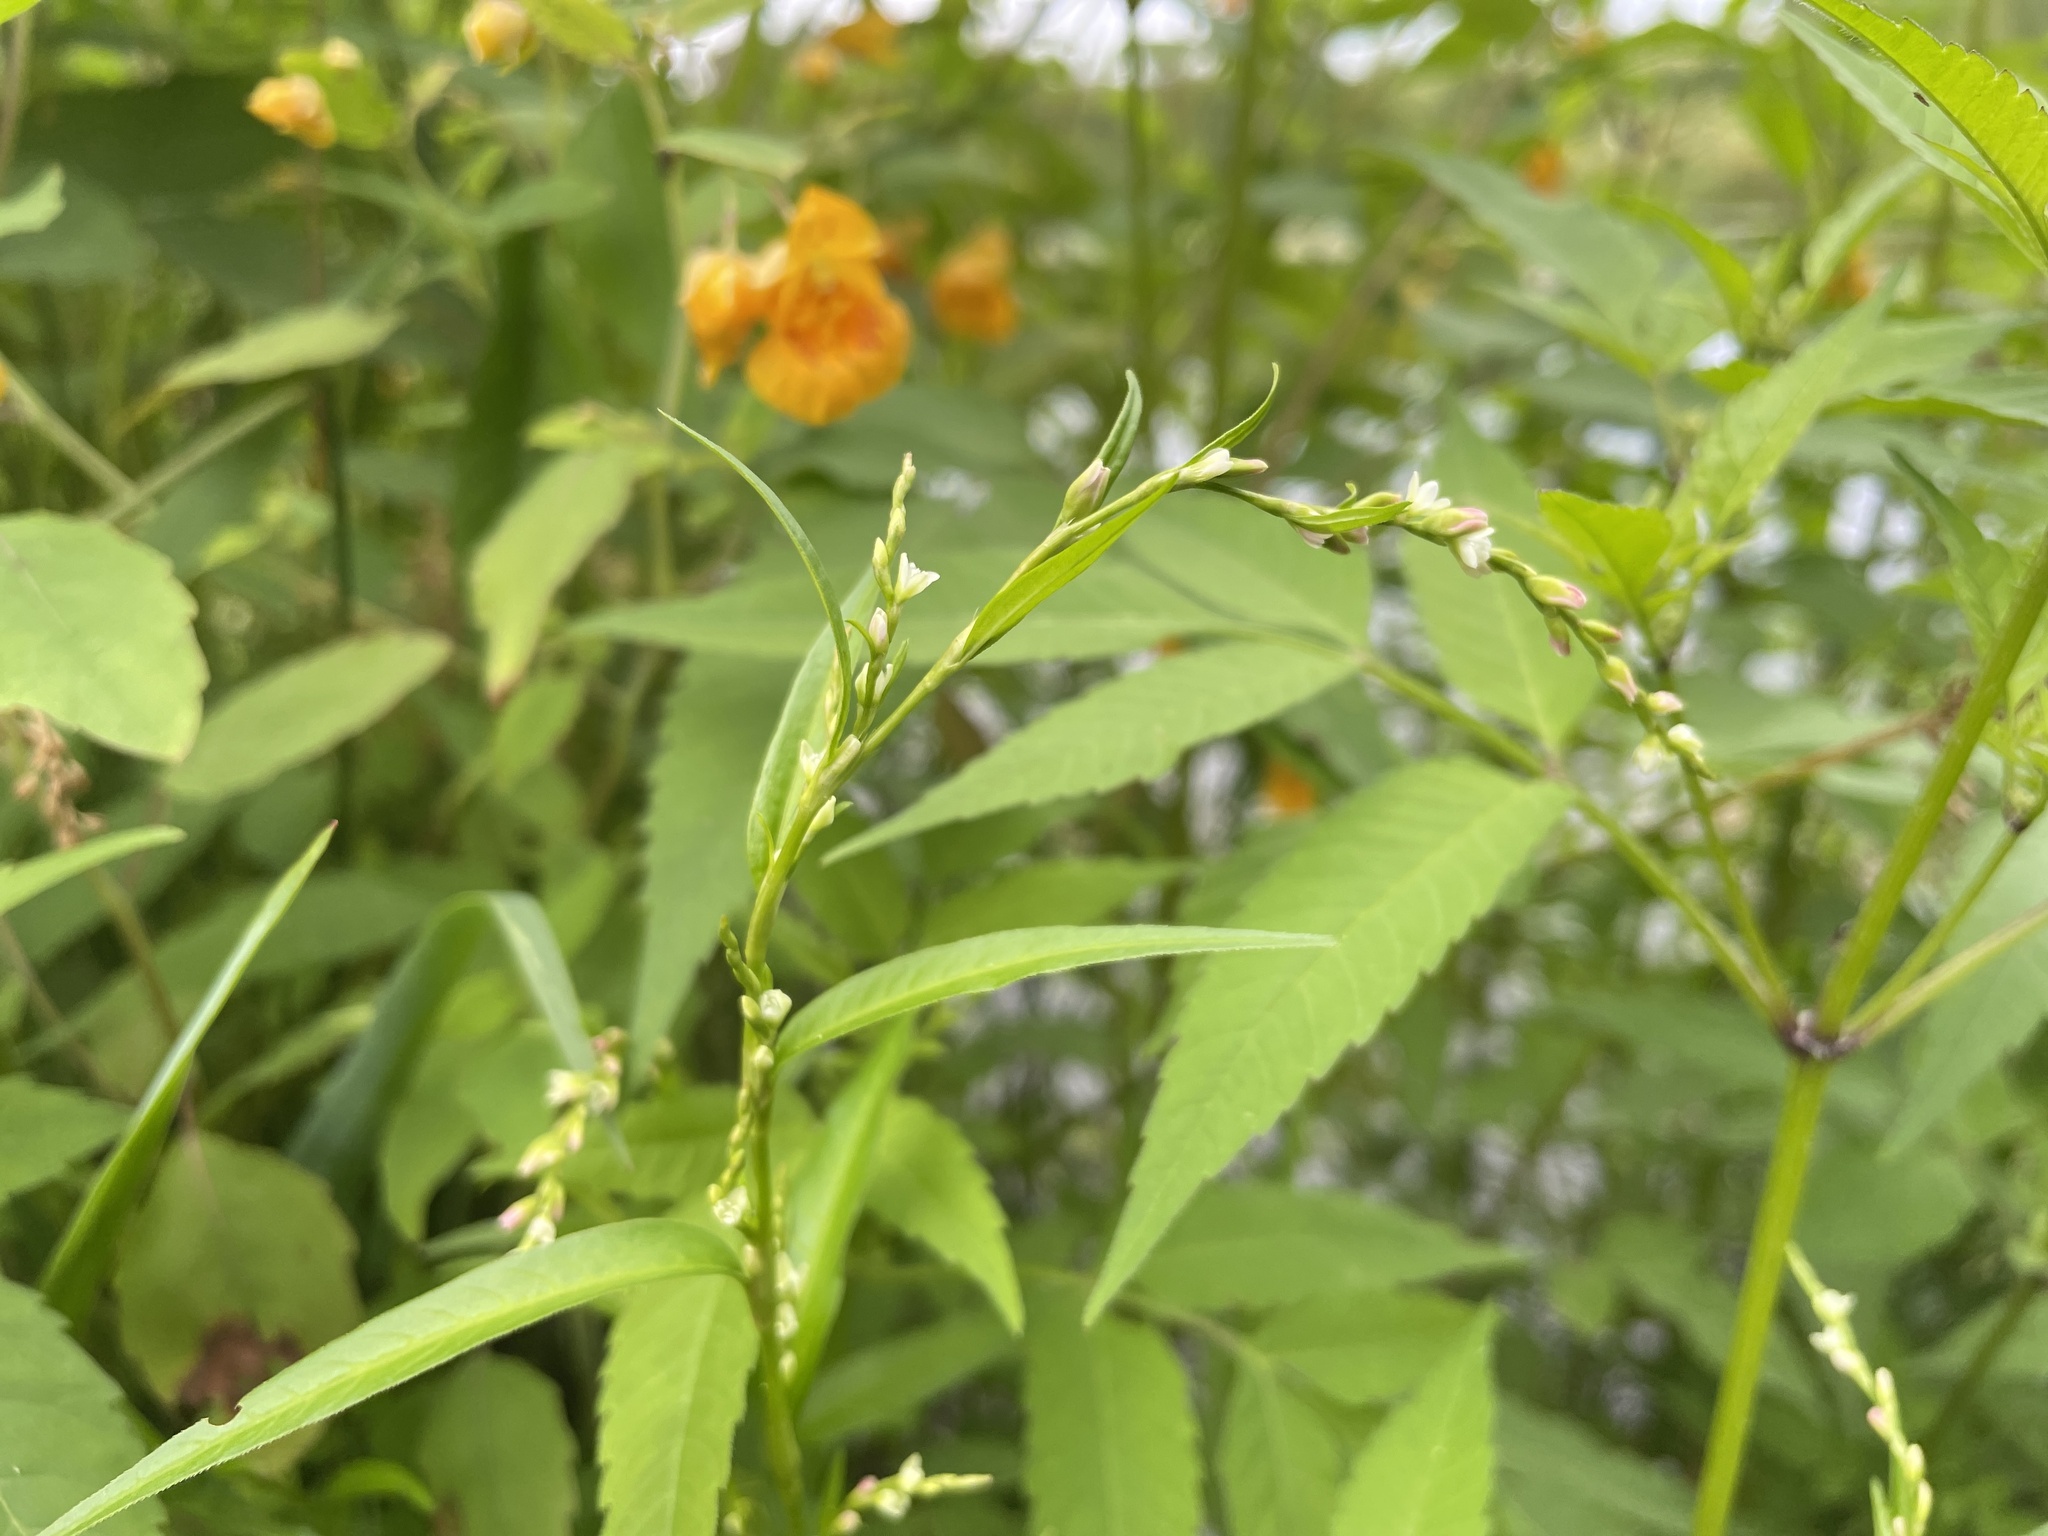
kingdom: Plantae
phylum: Tracheophyta
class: Magnoliopsida
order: Caryophyllales
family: Polygonaceae
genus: Persicaria
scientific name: Persicaria hydropiper
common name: Water-pepper
